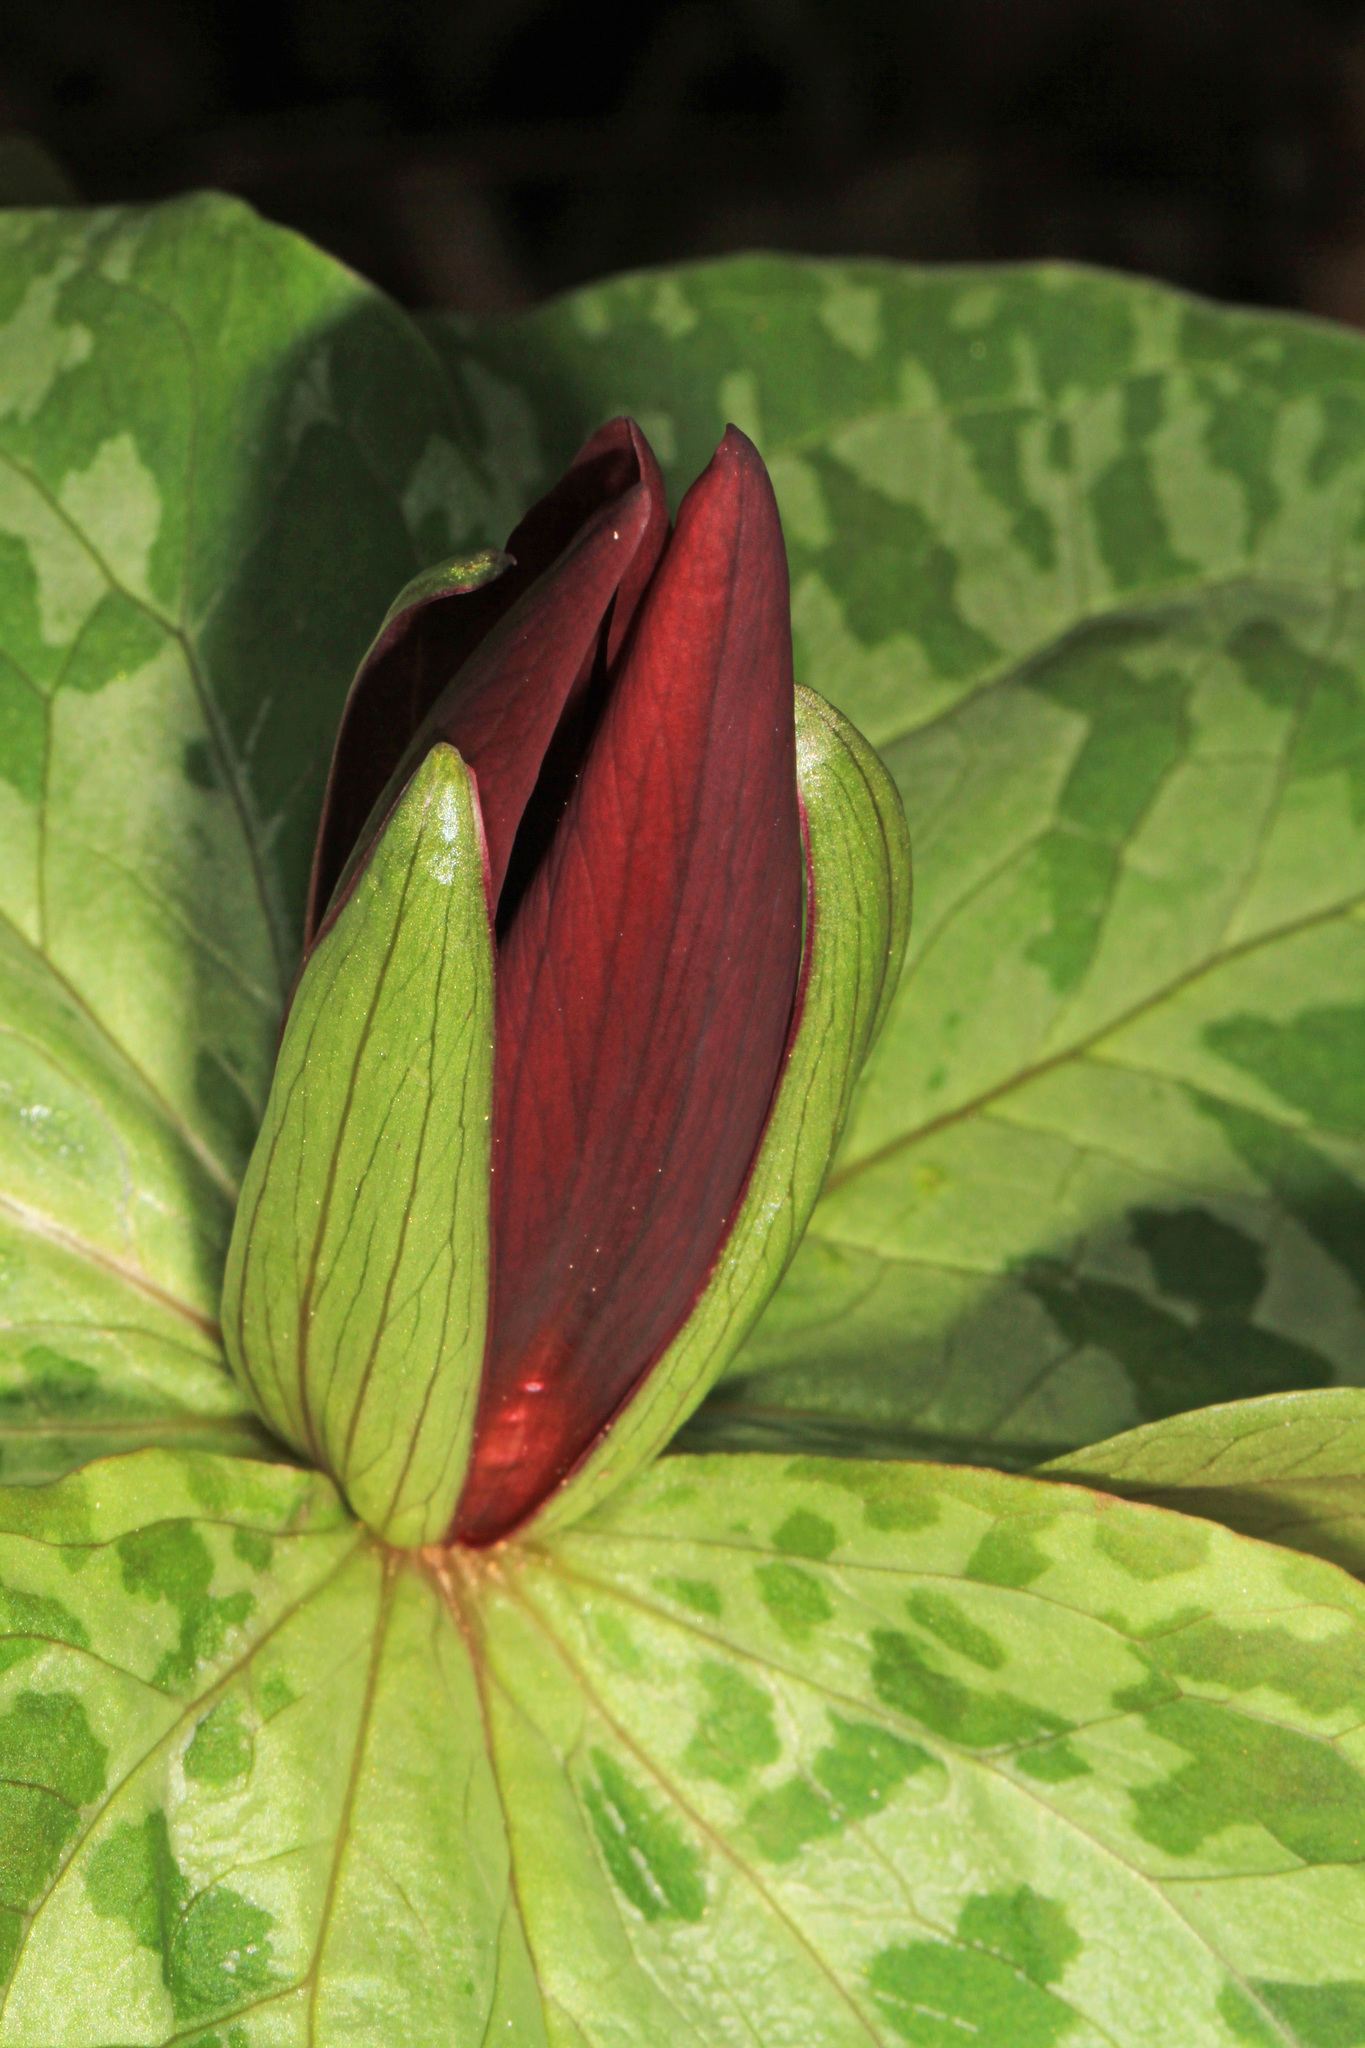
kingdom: Plantae
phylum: Tracheophyta
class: Liliopsida
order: Liliales
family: Melanthiaceae
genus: Trillium
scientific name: Trillium sessile
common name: Sessile trillium
